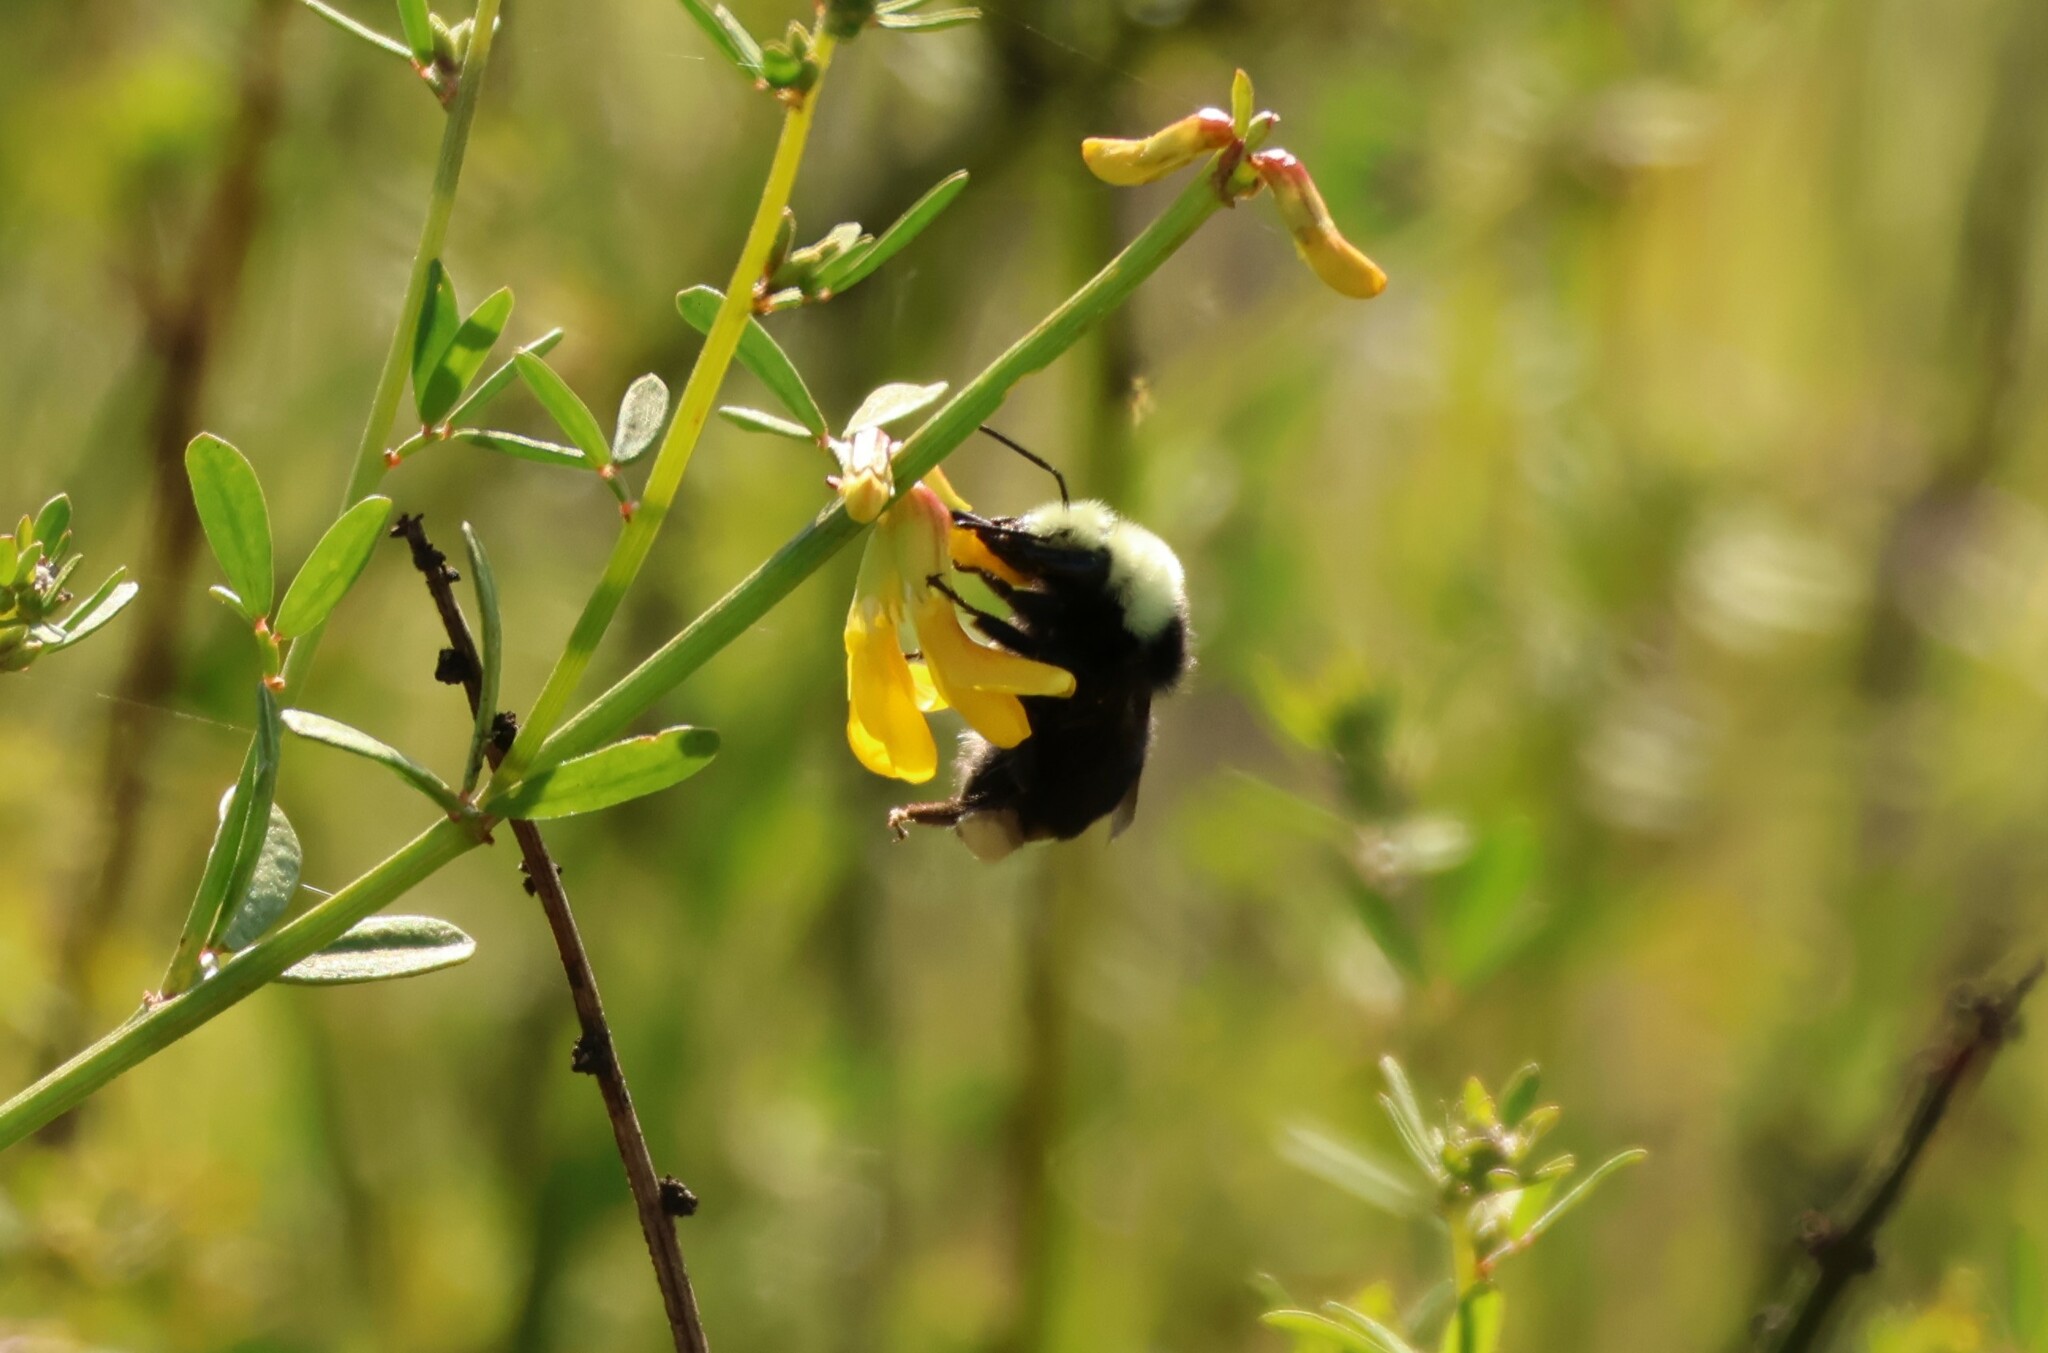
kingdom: Animalia
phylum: Arthropoda
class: Insecta
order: Hymenoptera
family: Apidae
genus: Bombus
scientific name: Bombus vosnesenskii
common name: Vosnesensky bumble bee
